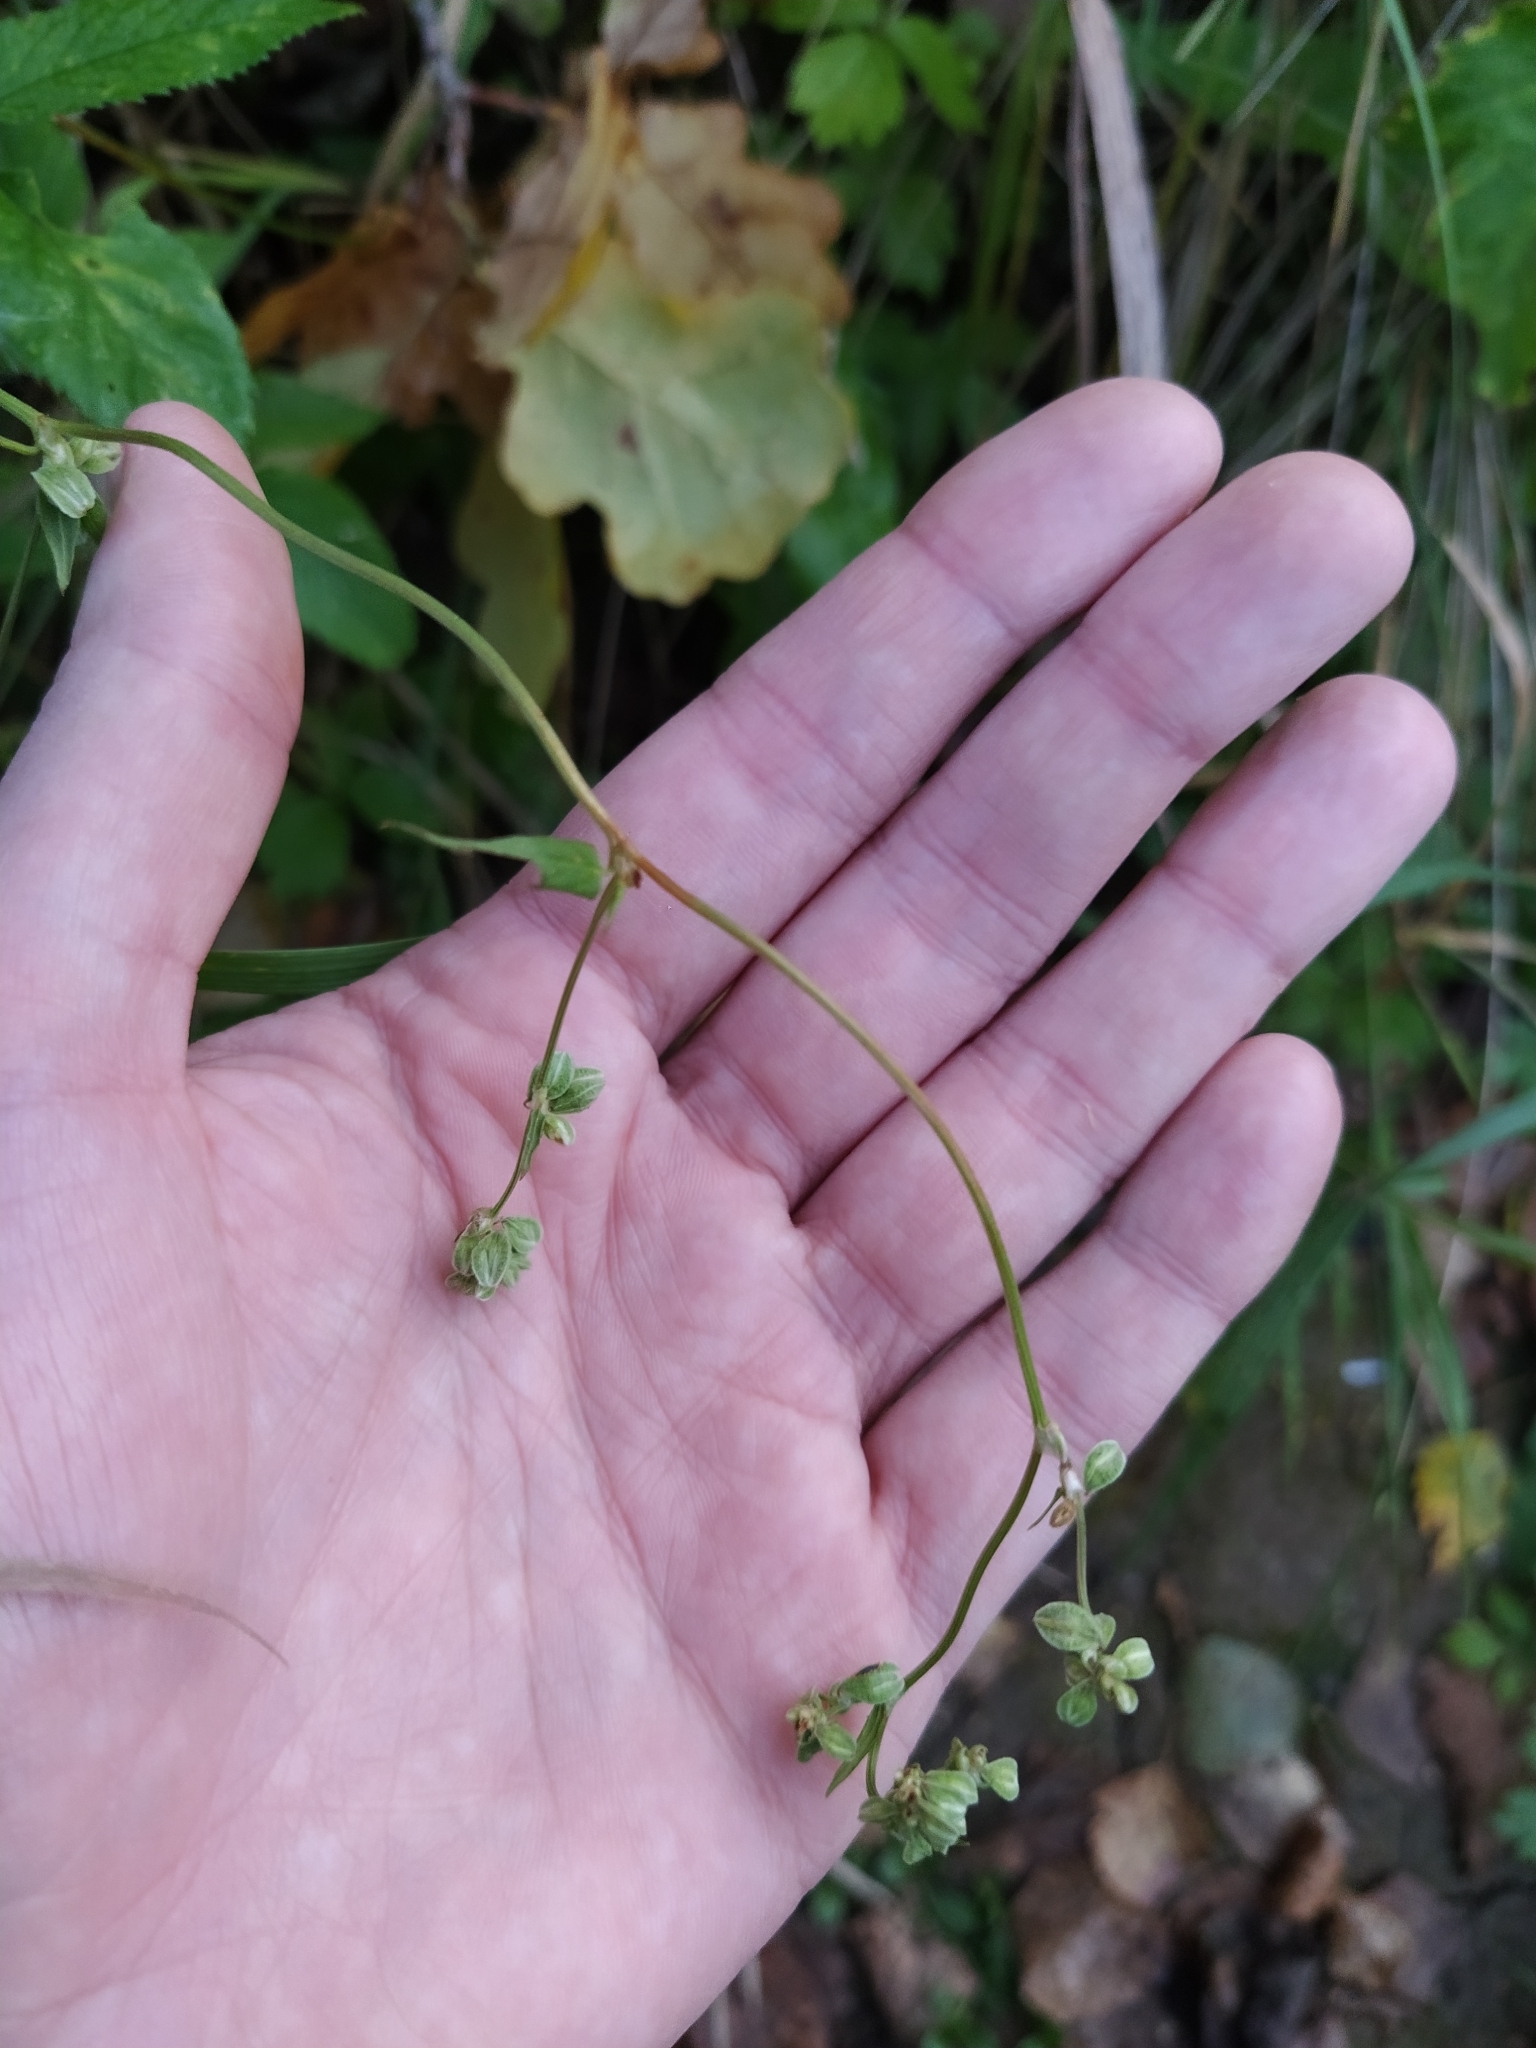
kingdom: Plantae
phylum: Tracheophyta
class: Magnoliopsida
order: Caryophyllales
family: Polygonaceae
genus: Fallopia
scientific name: Fallopia convolvulus
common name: Black bindweed
